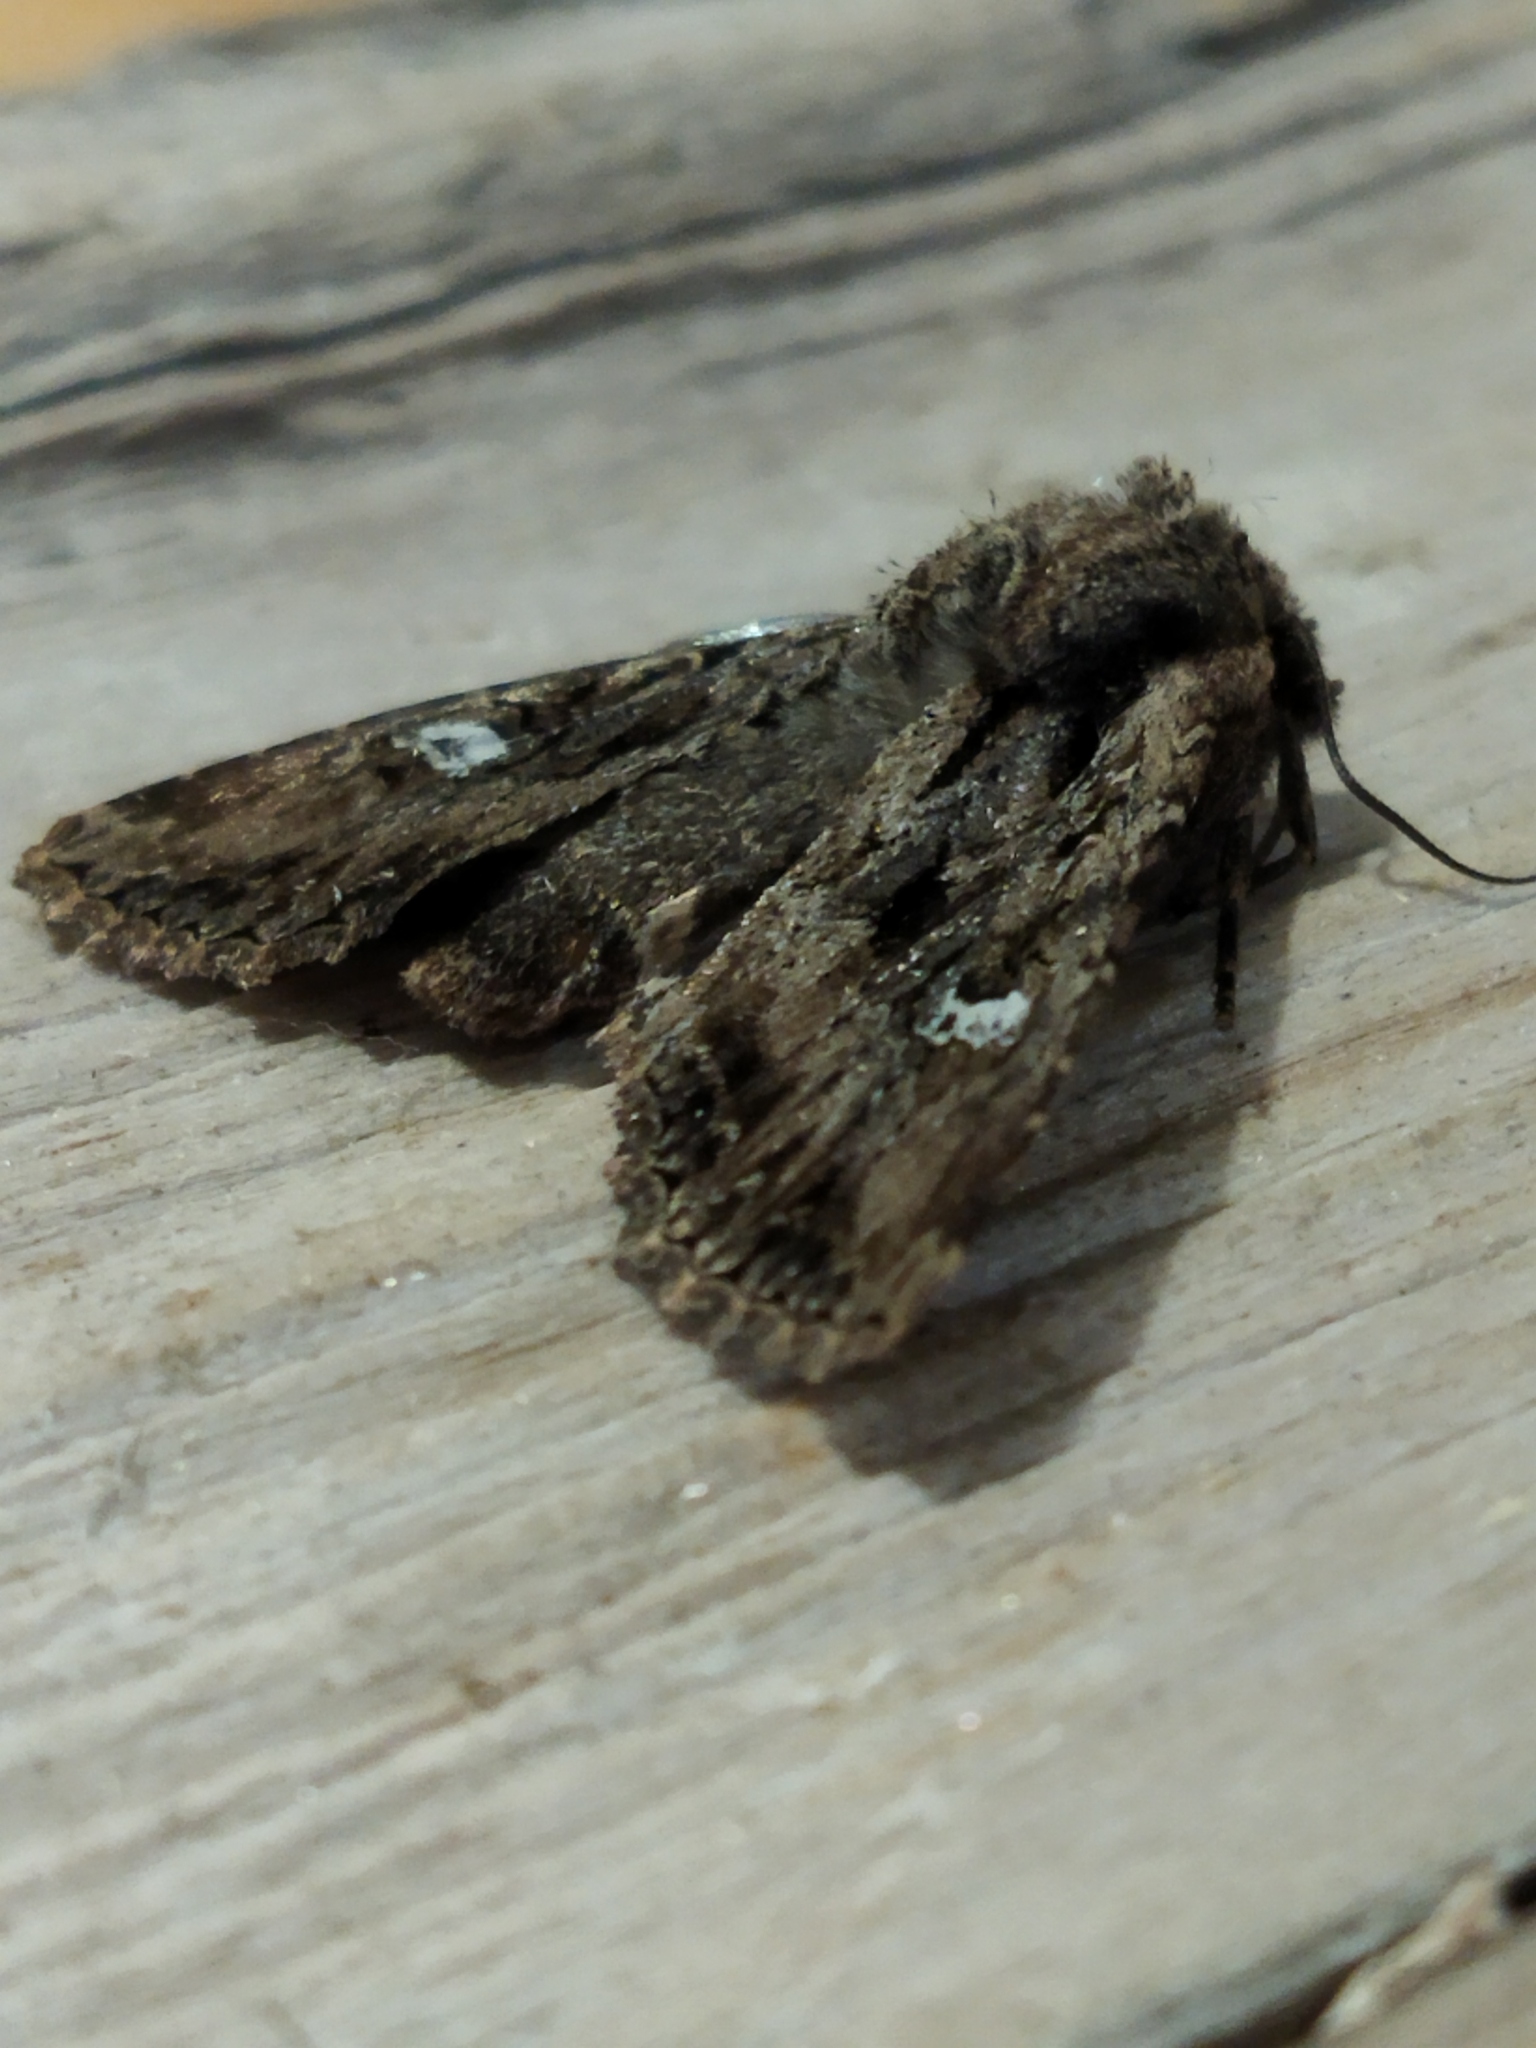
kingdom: Animalia
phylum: Arthropoda
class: Insecta
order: Lepidoptera
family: Noctuidae
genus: Polymixis
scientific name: Polymixis trisignata
